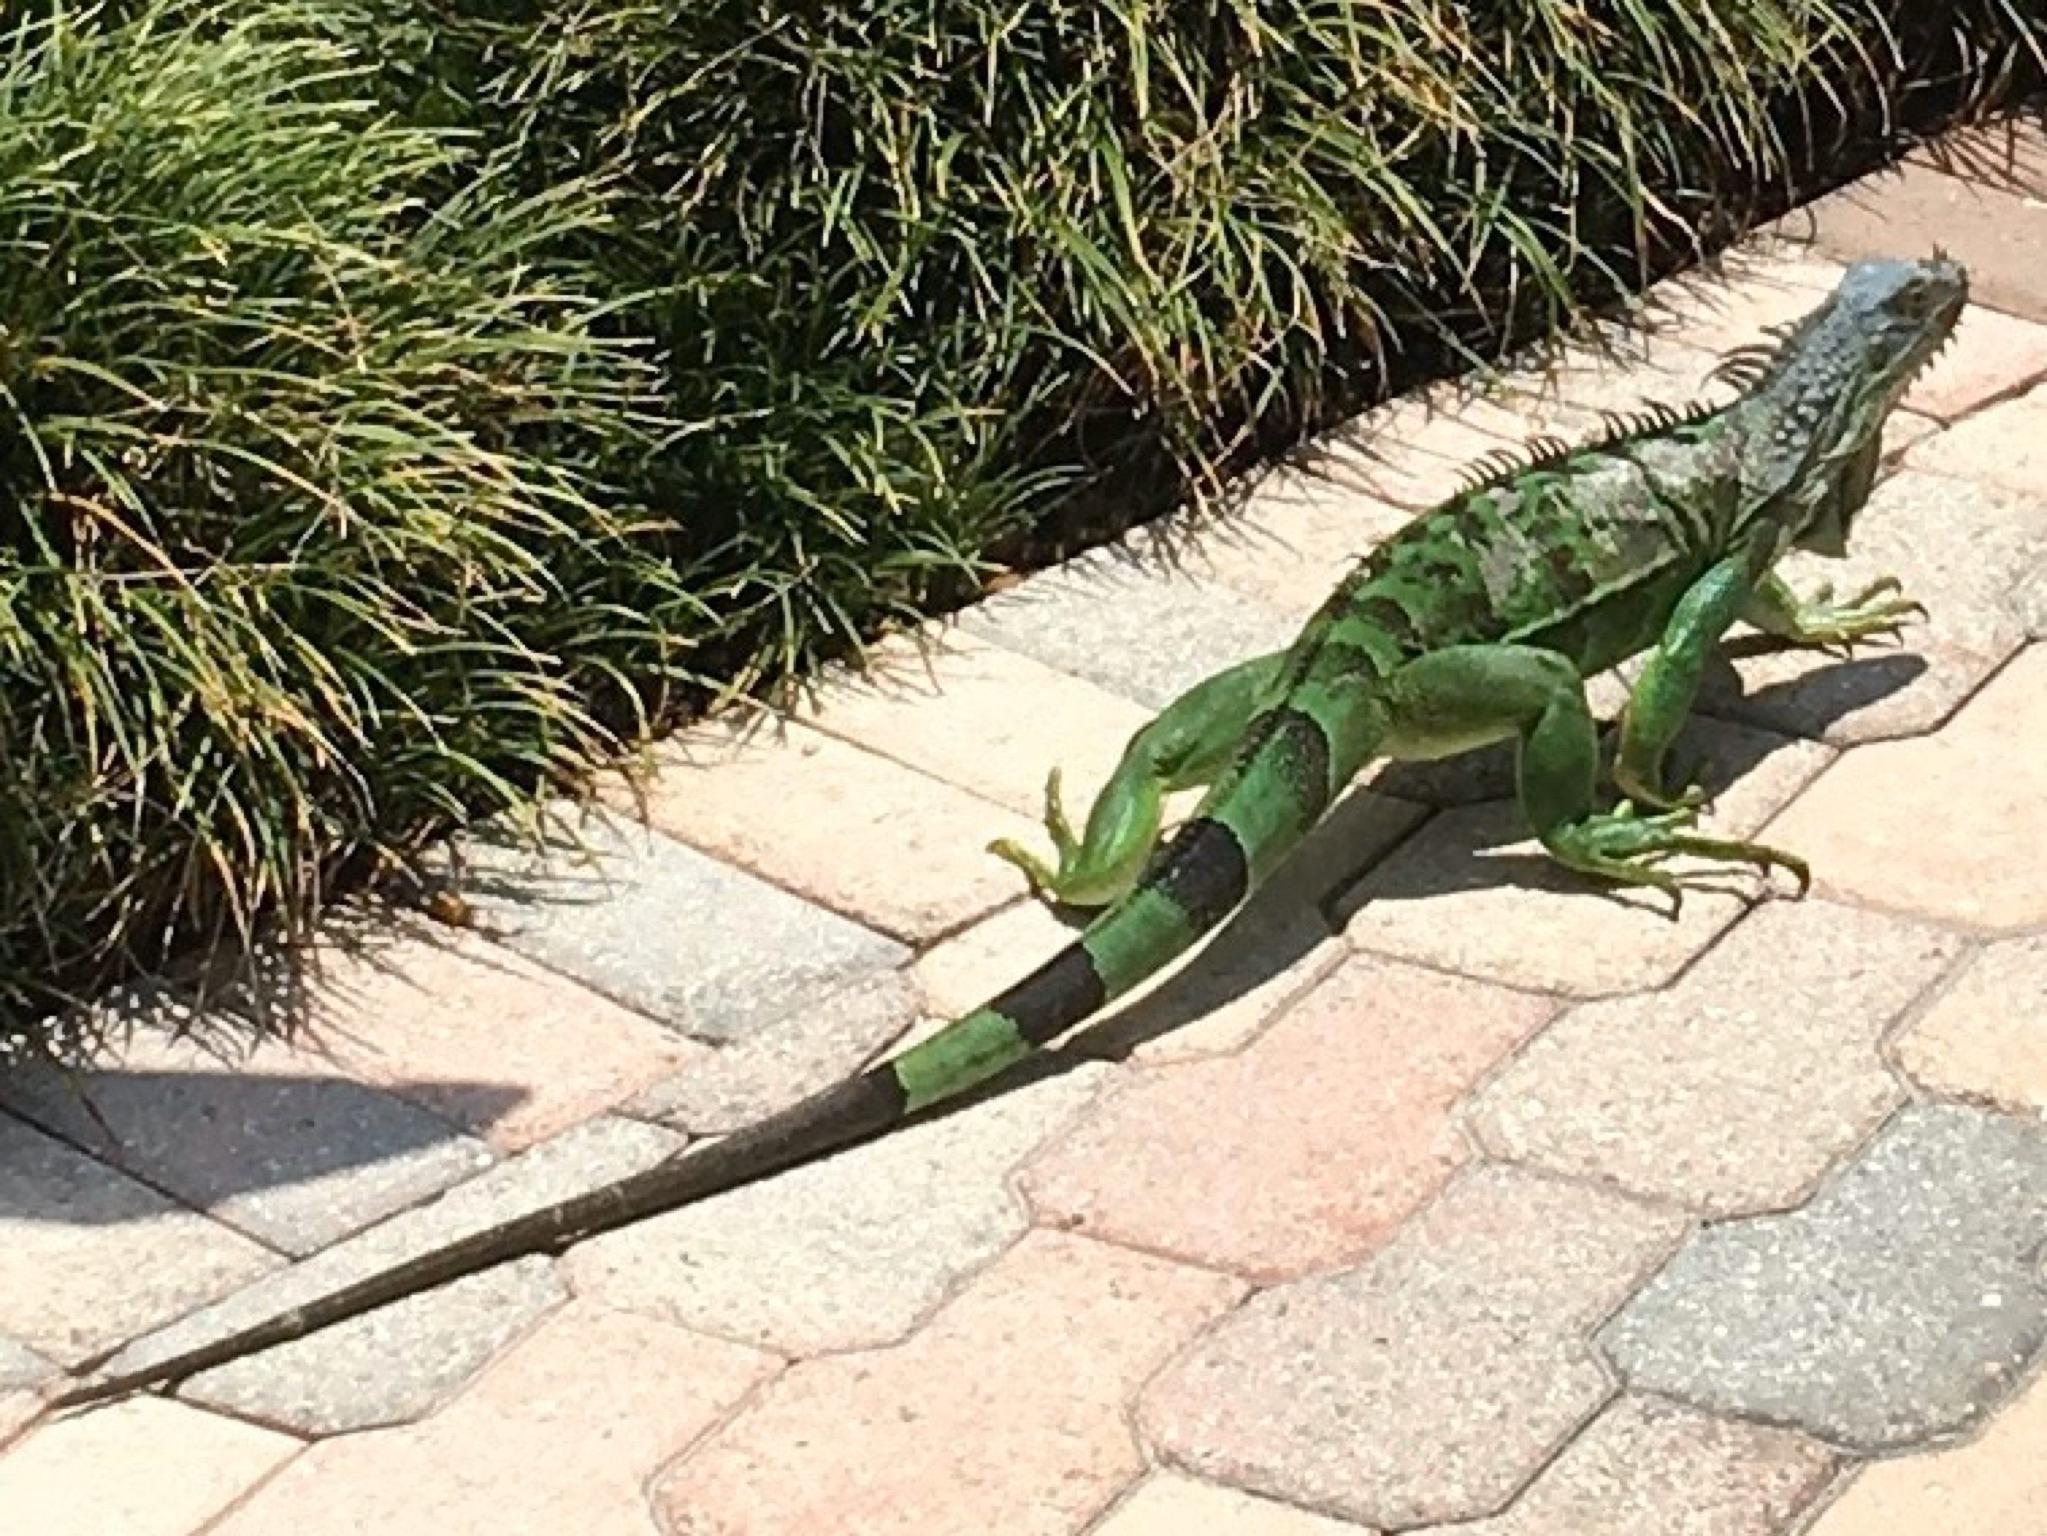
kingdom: Animalia
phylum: Chordata
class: Squamata
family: Iguanidae
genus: Iguana
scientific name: Iguana iguana
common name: Green iguana
